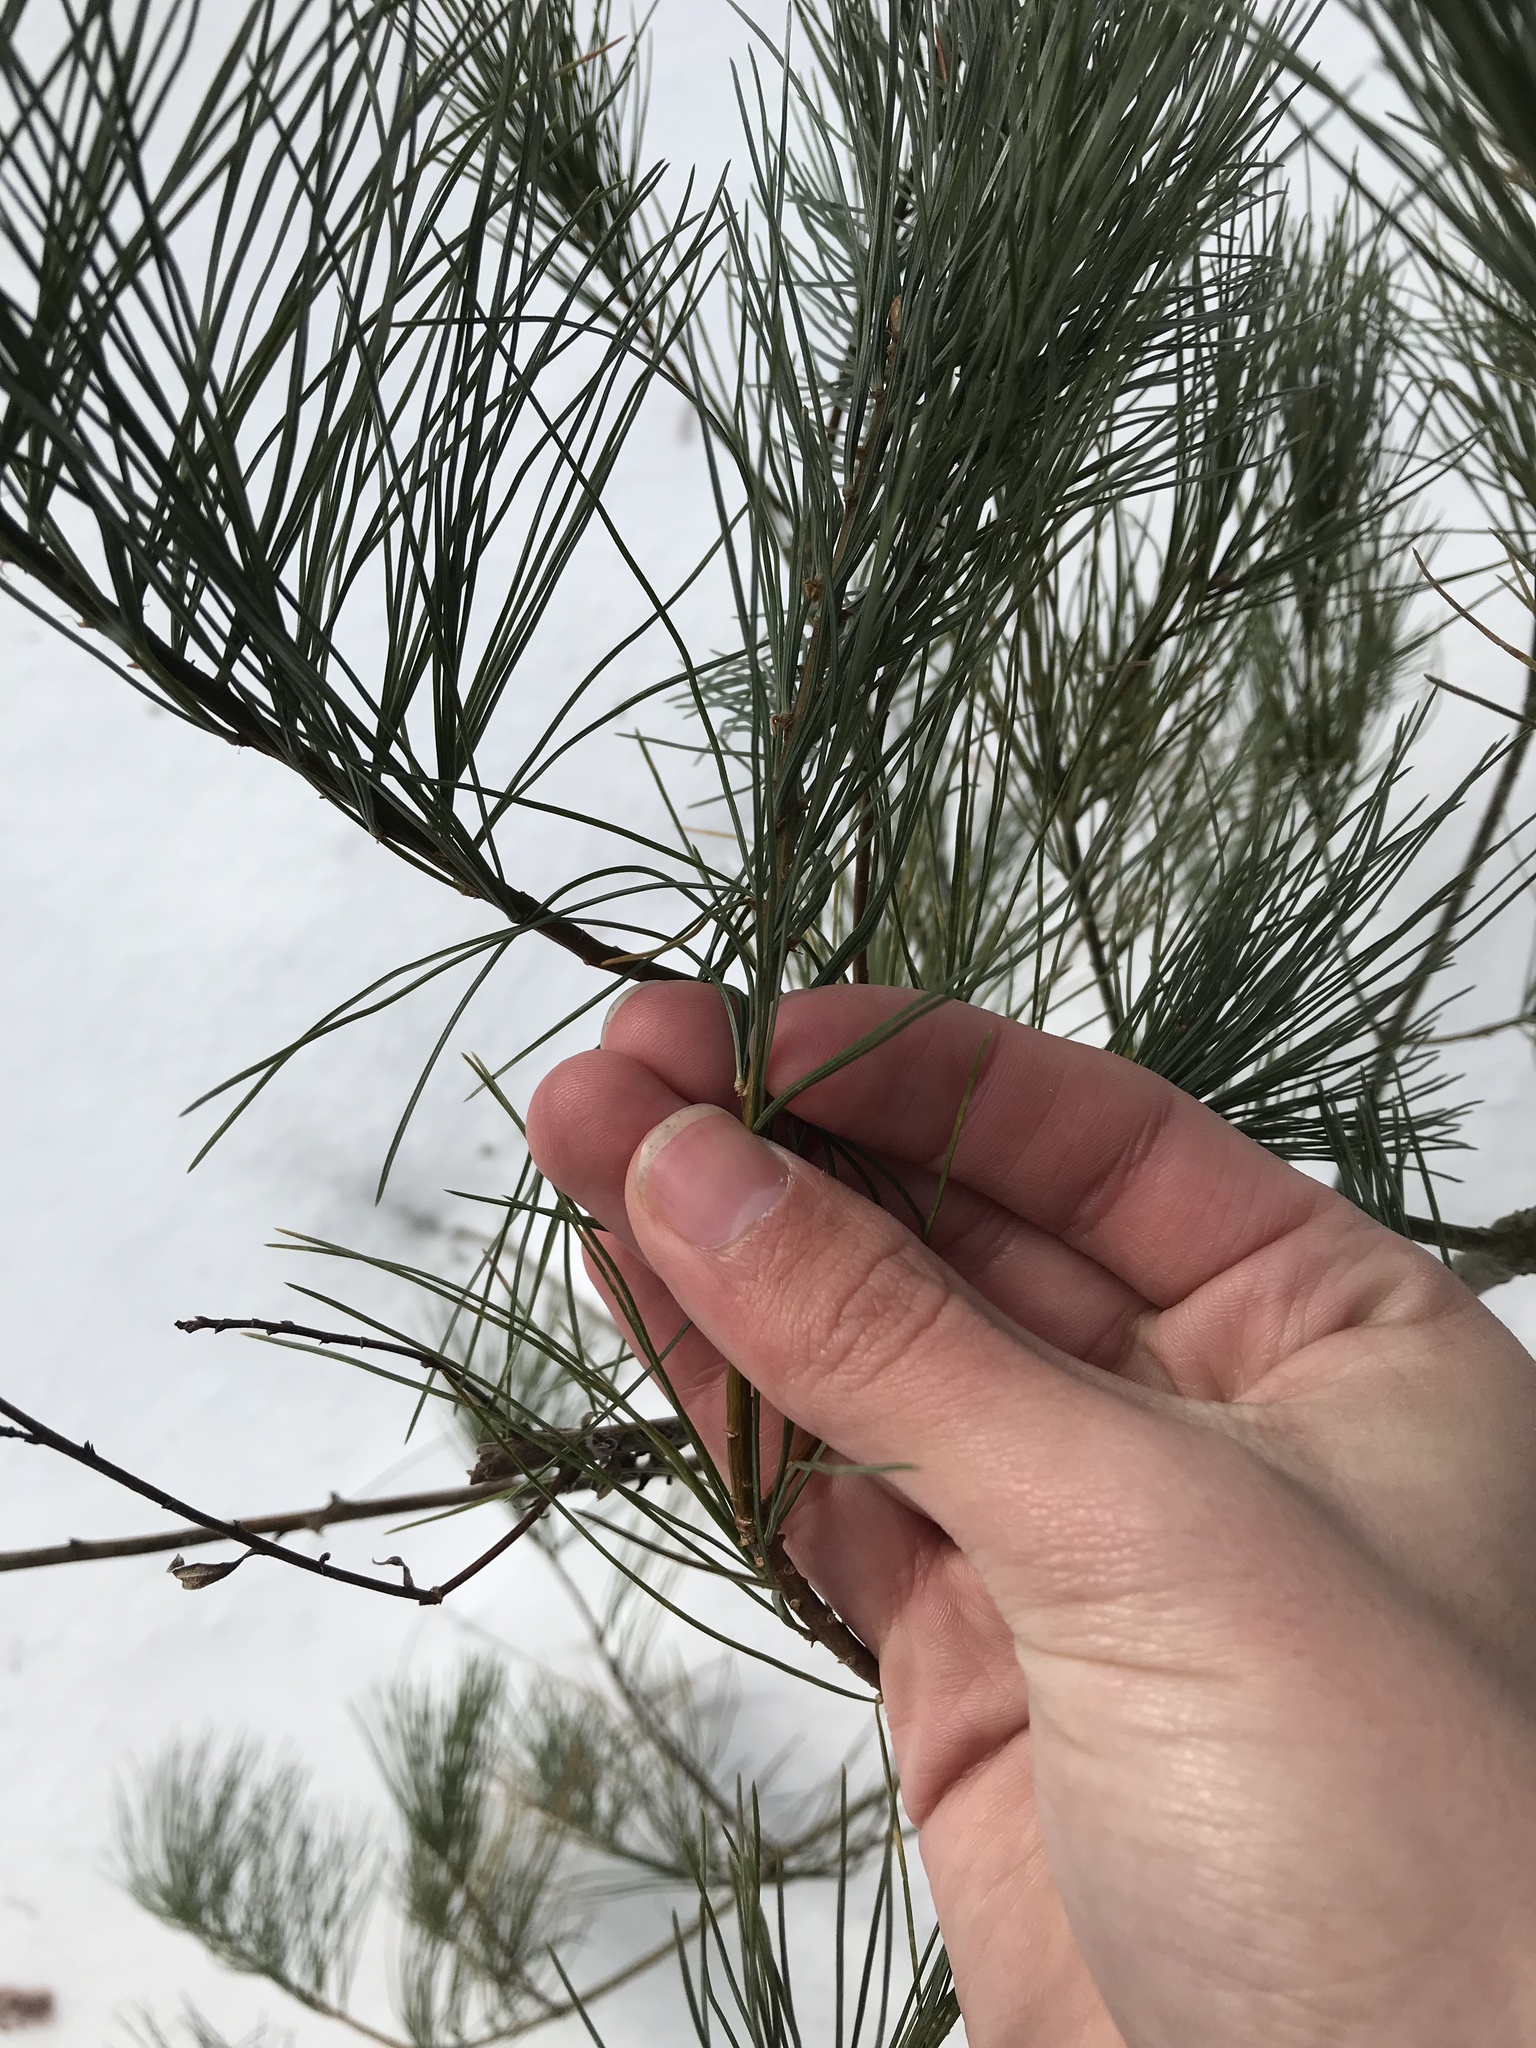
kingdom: Plantae
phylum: Tracheophyta
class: Pinopsida
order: Pinales
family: Pinaceae
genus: Pinus
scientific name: Pinus strobus
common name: Weymouth pine
